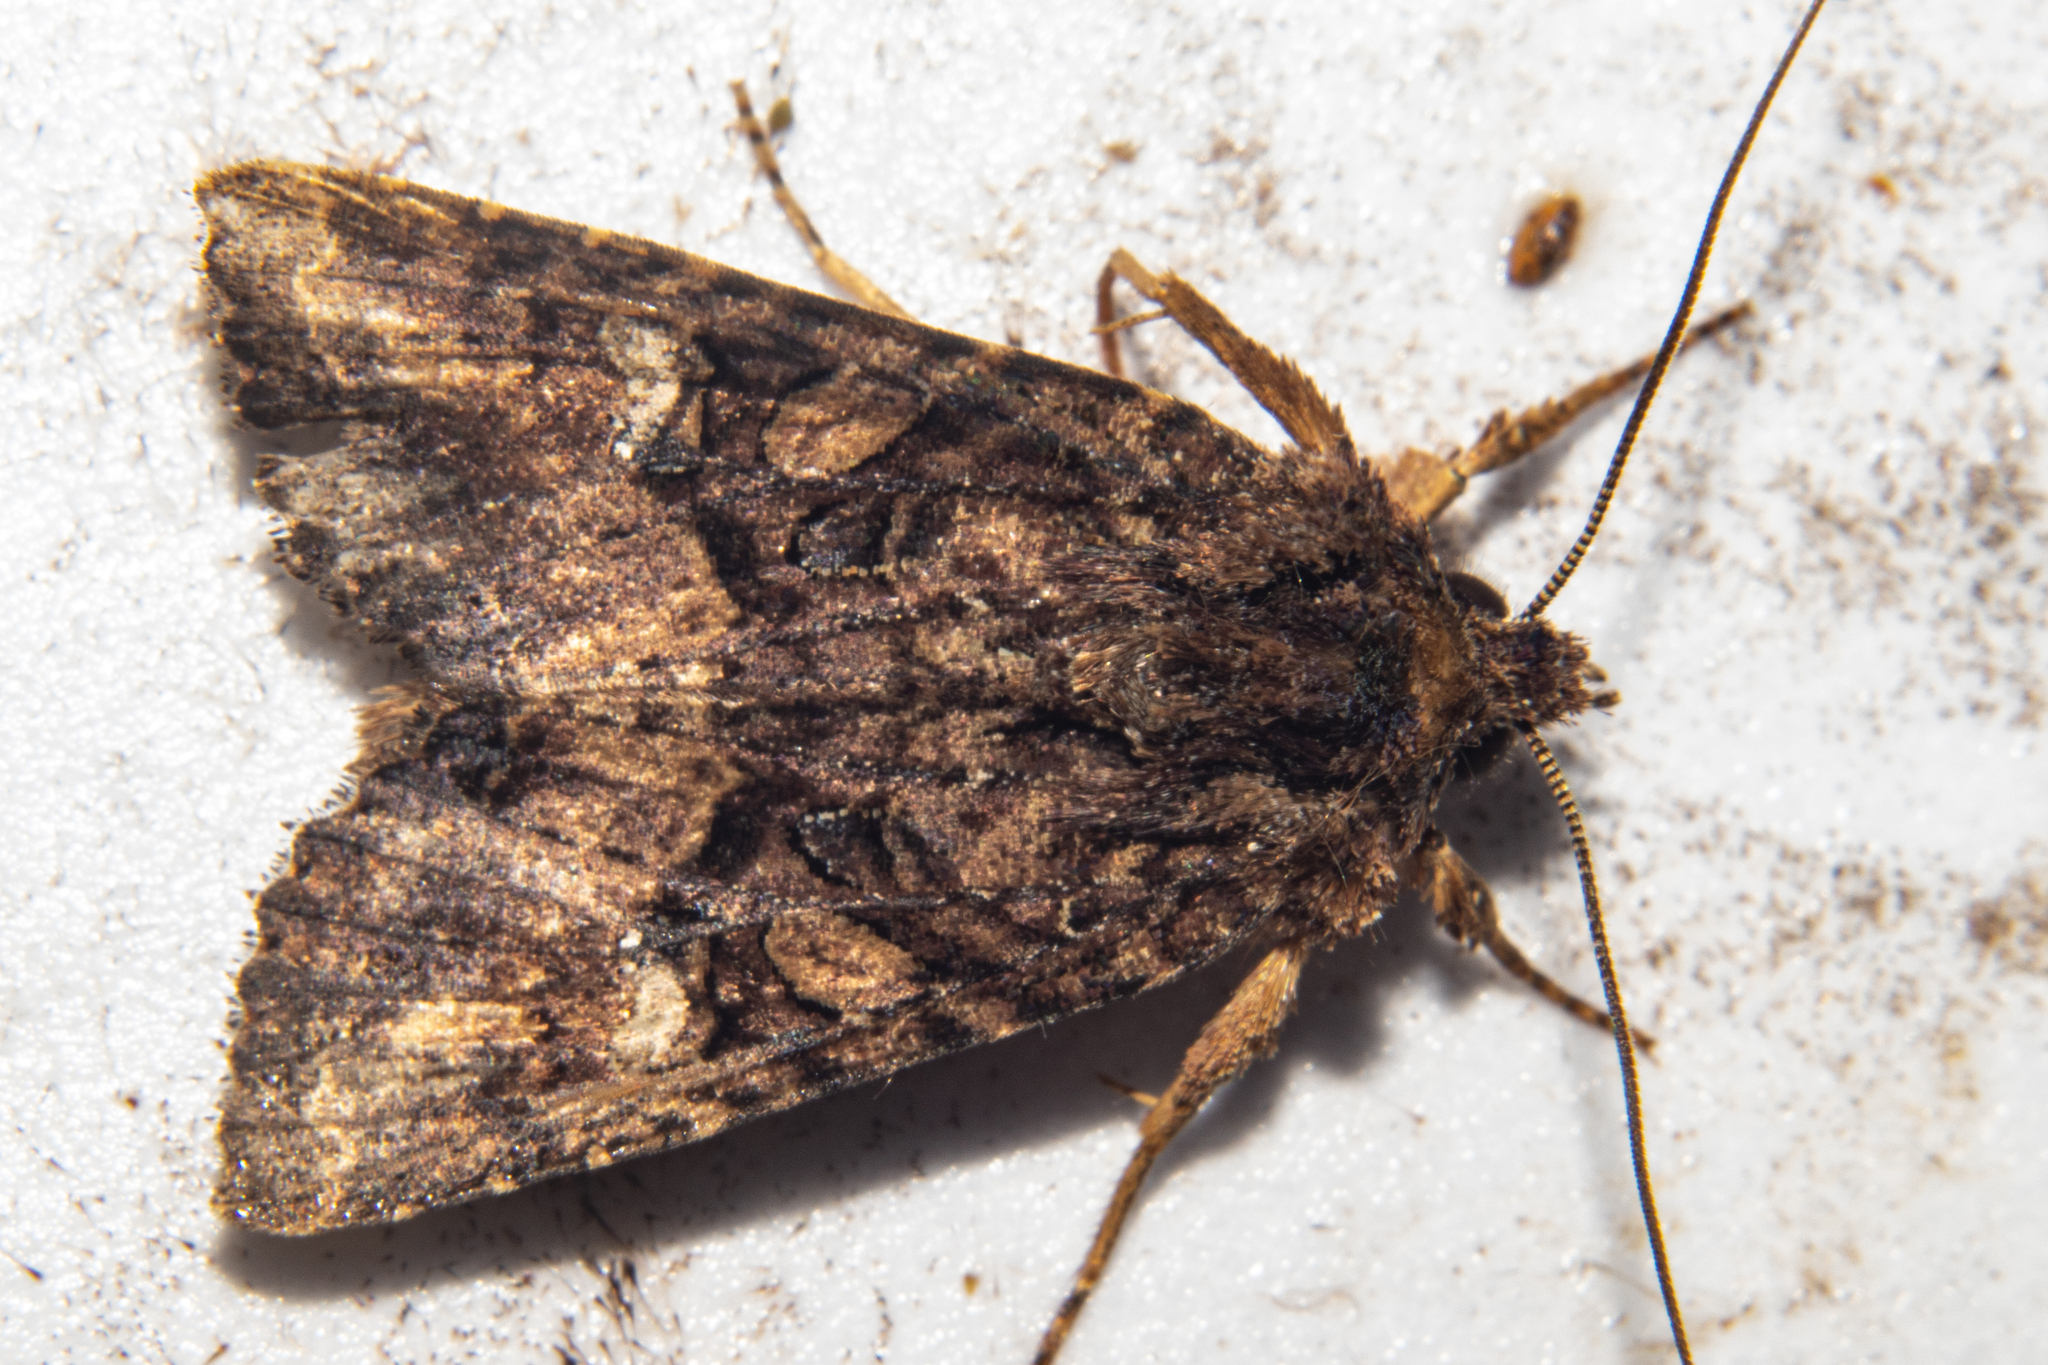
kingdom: Animalia
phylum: Arthropoda
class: Insecta
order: Lepidoptera
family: Noctuidae
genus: Meterana
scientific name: Meterana ochthistis
